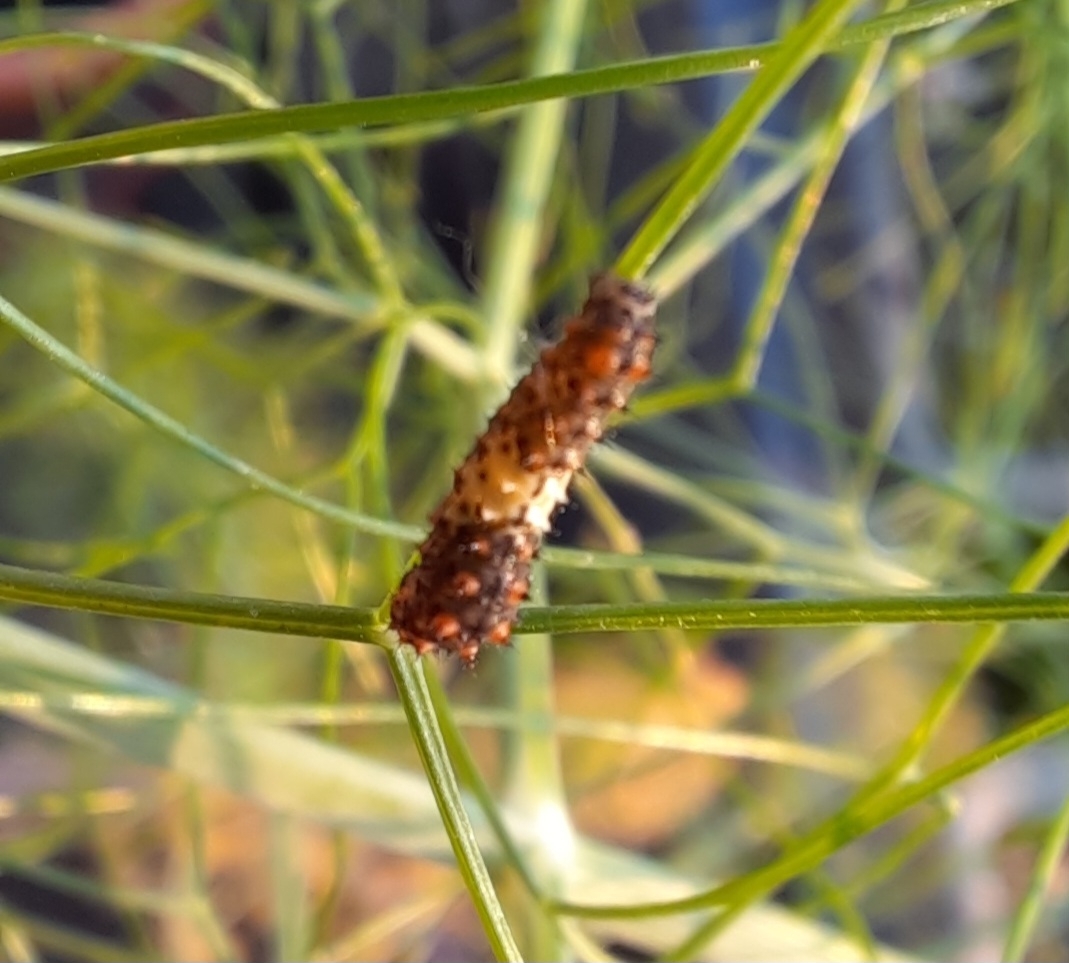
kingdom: Animalia
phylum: Arthropoda
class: Insecta
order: Lepidoptera
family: Papilionidae
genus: Papilio
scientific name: Papilio machaon
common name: Swallowtail
